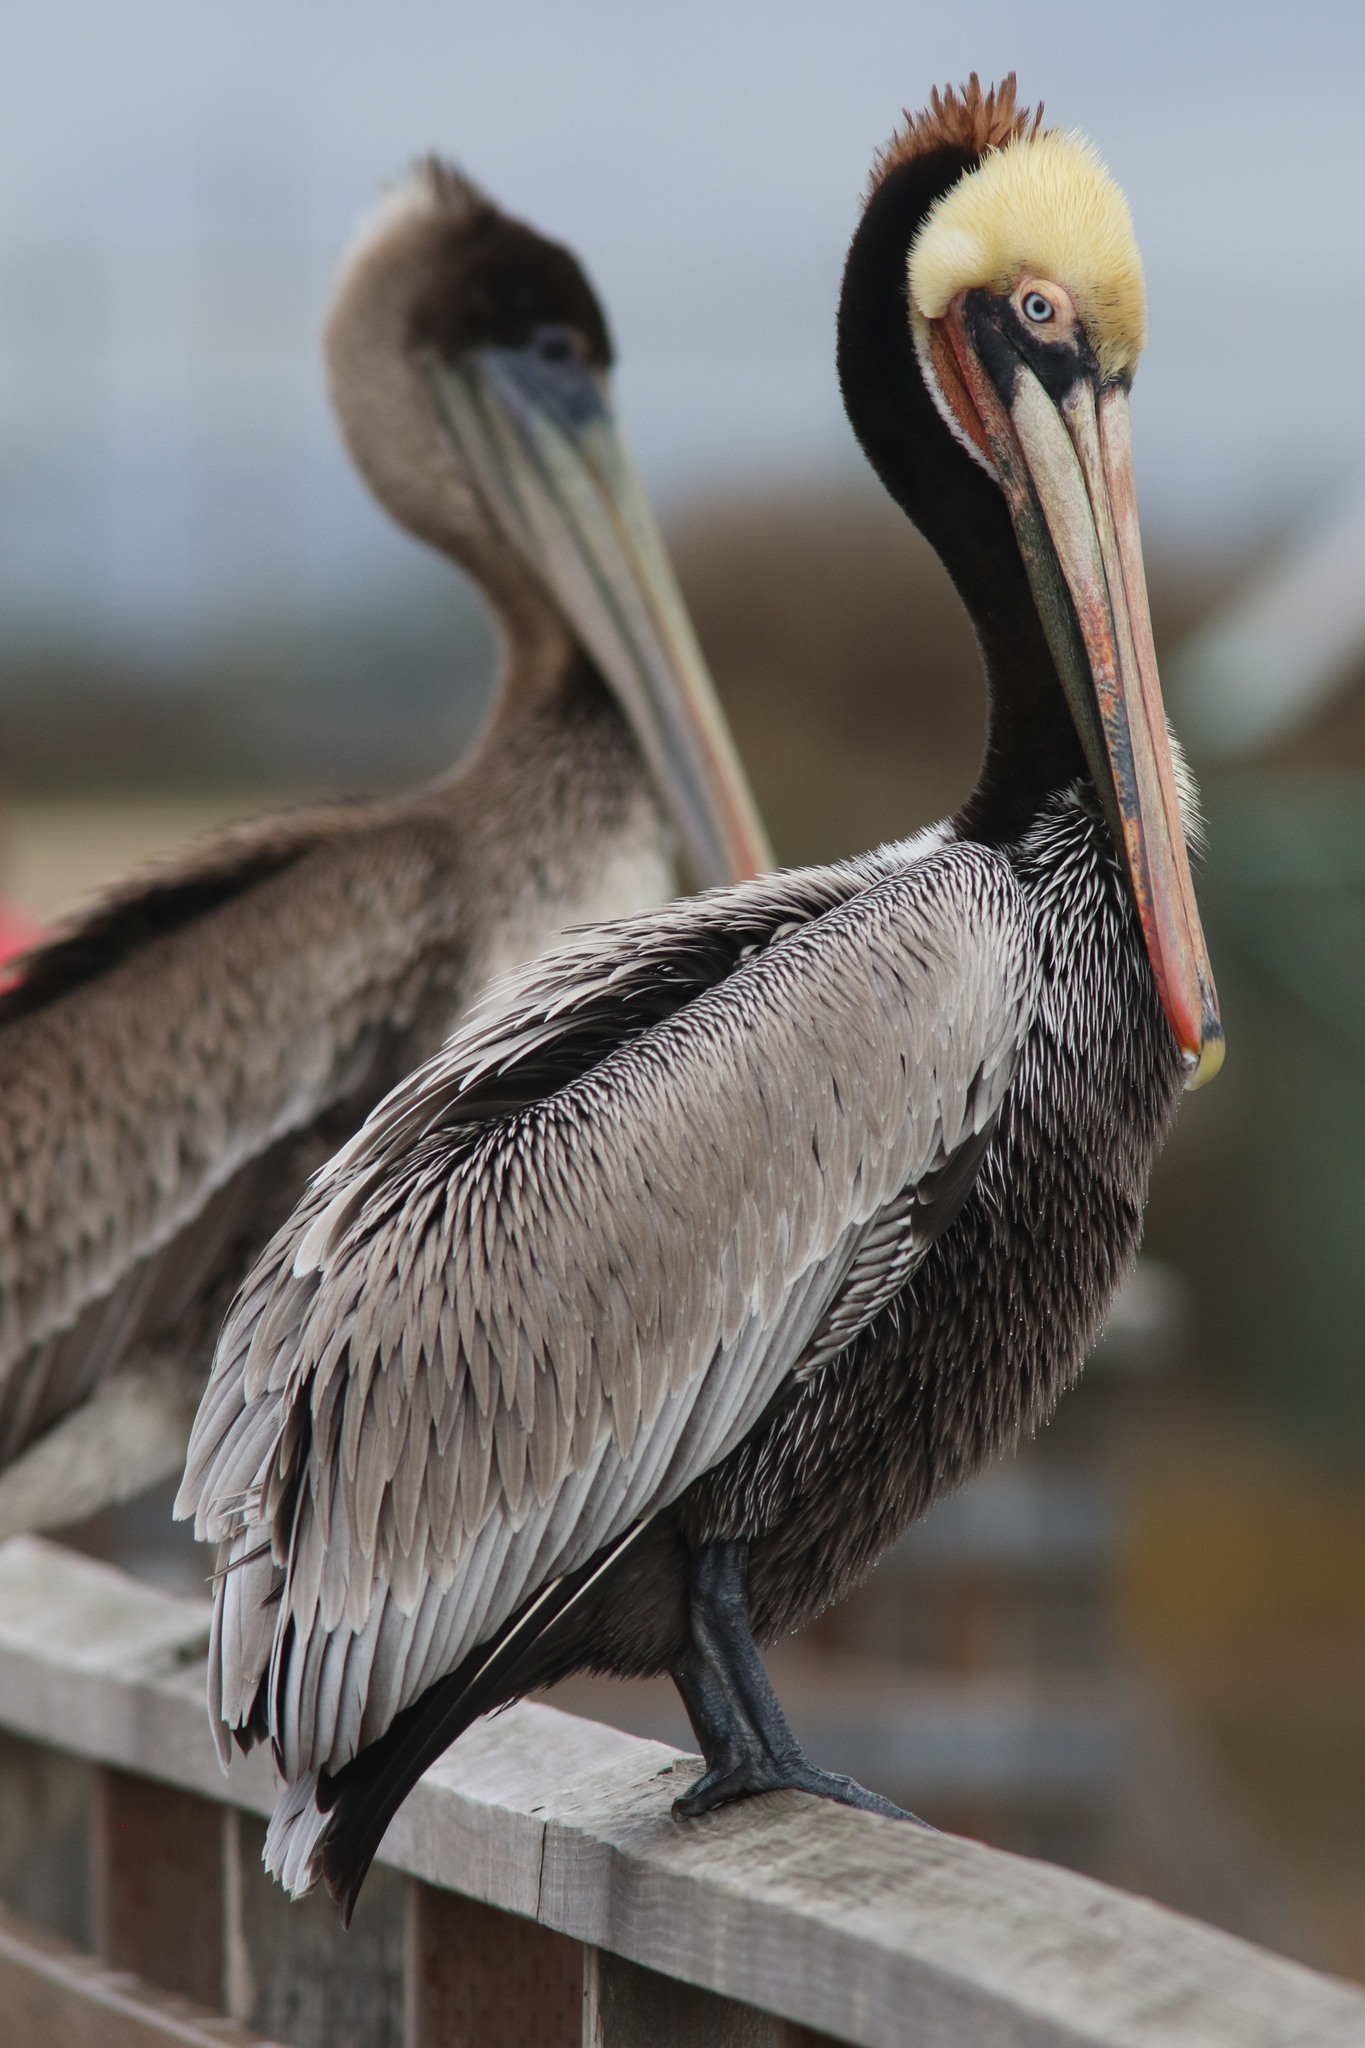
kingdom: Animalia
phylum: Chordata
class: Aves
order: Pelecaniformes
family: Pelecanidae
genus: Pelecanus
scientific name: Pelecanus occidentalis
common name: Brown pelican
